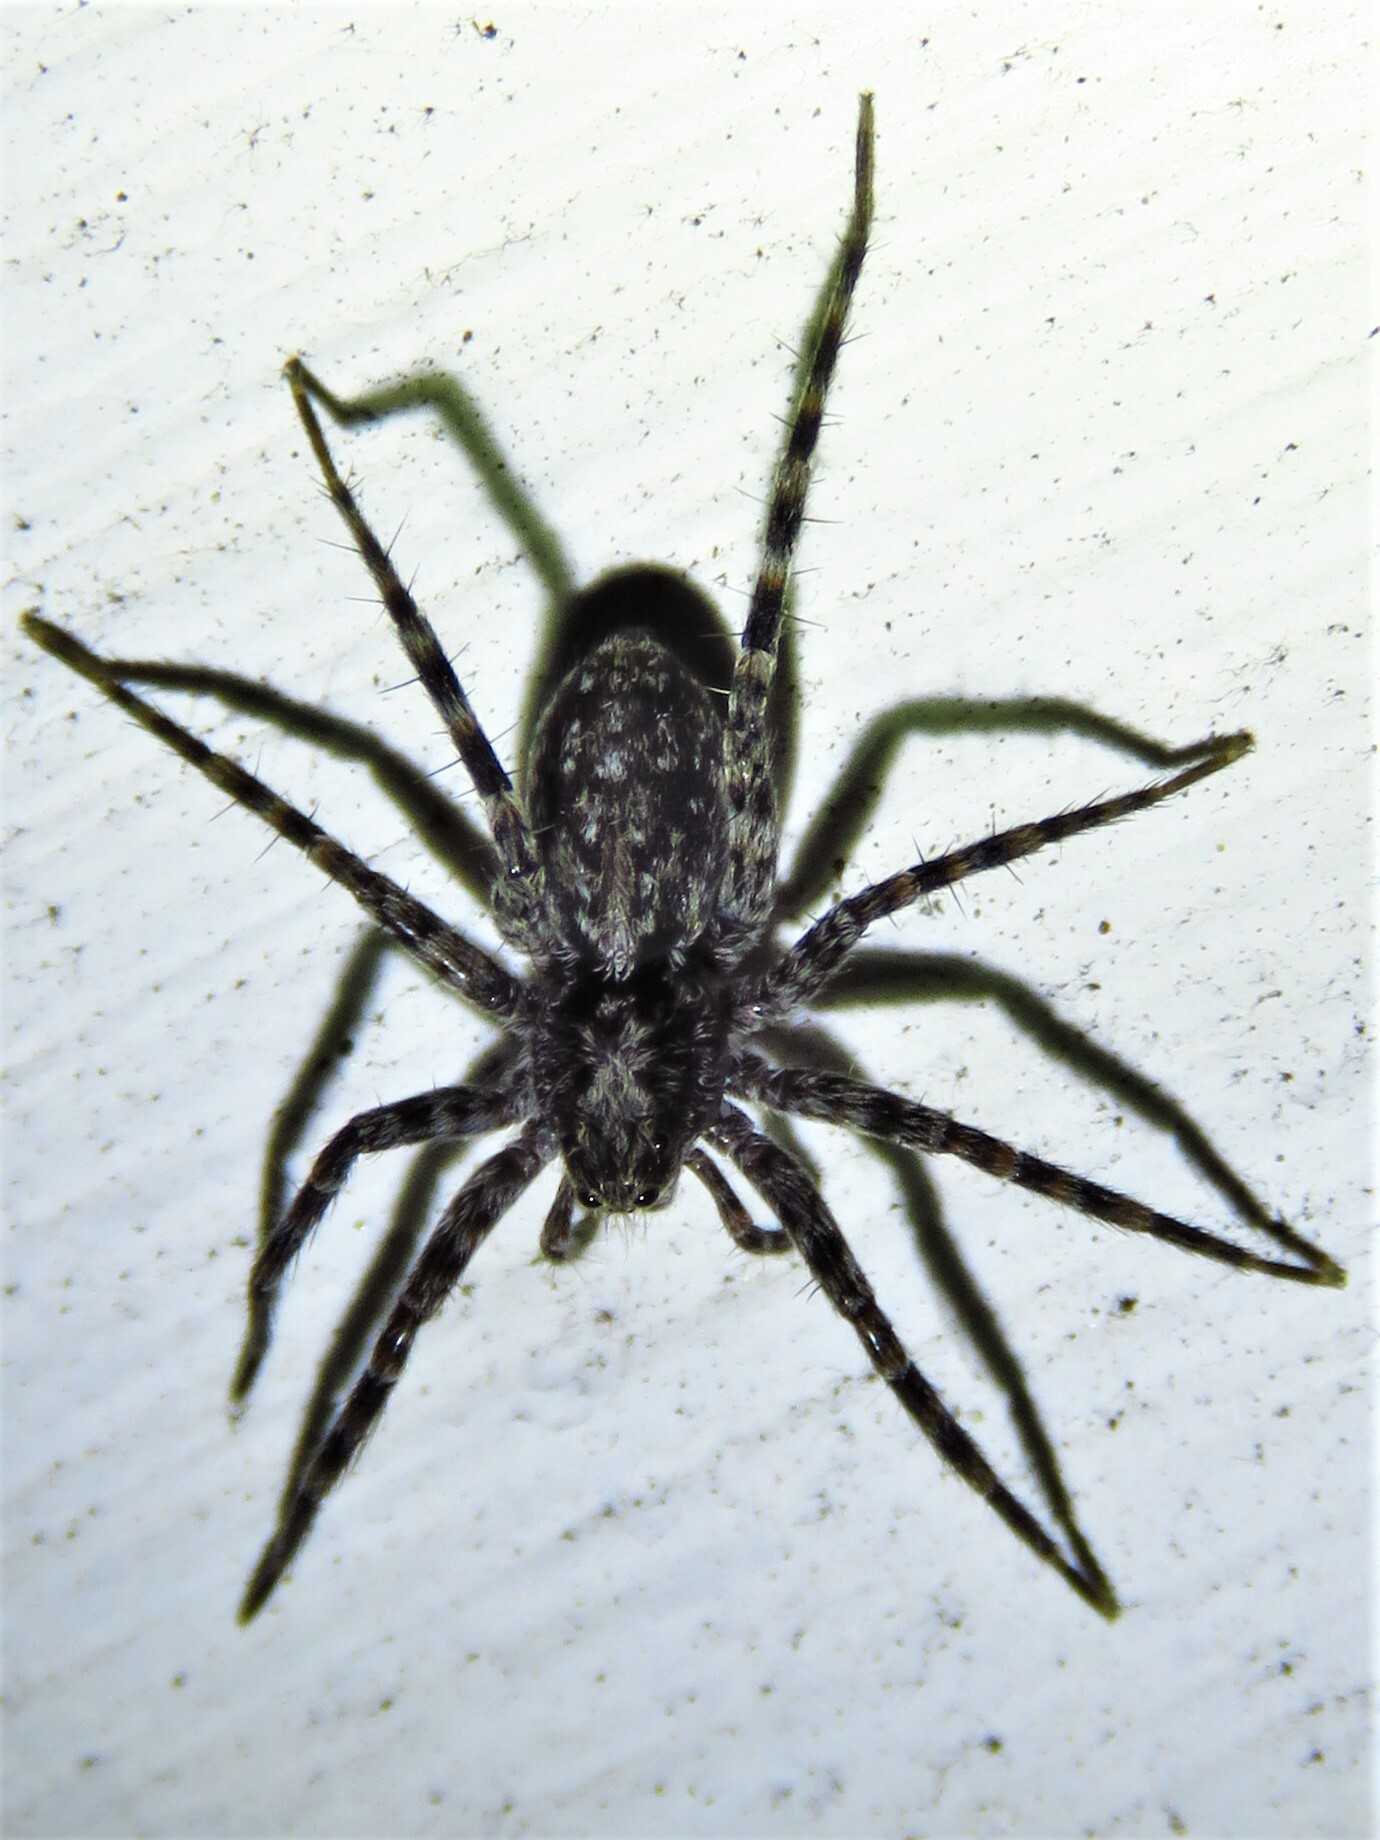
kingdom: Animalia
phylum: Arthropoda
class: Arachnida
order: Araneae
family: Lycosidae
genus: Acantholycosa
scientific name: Acantholycosa lignaria
